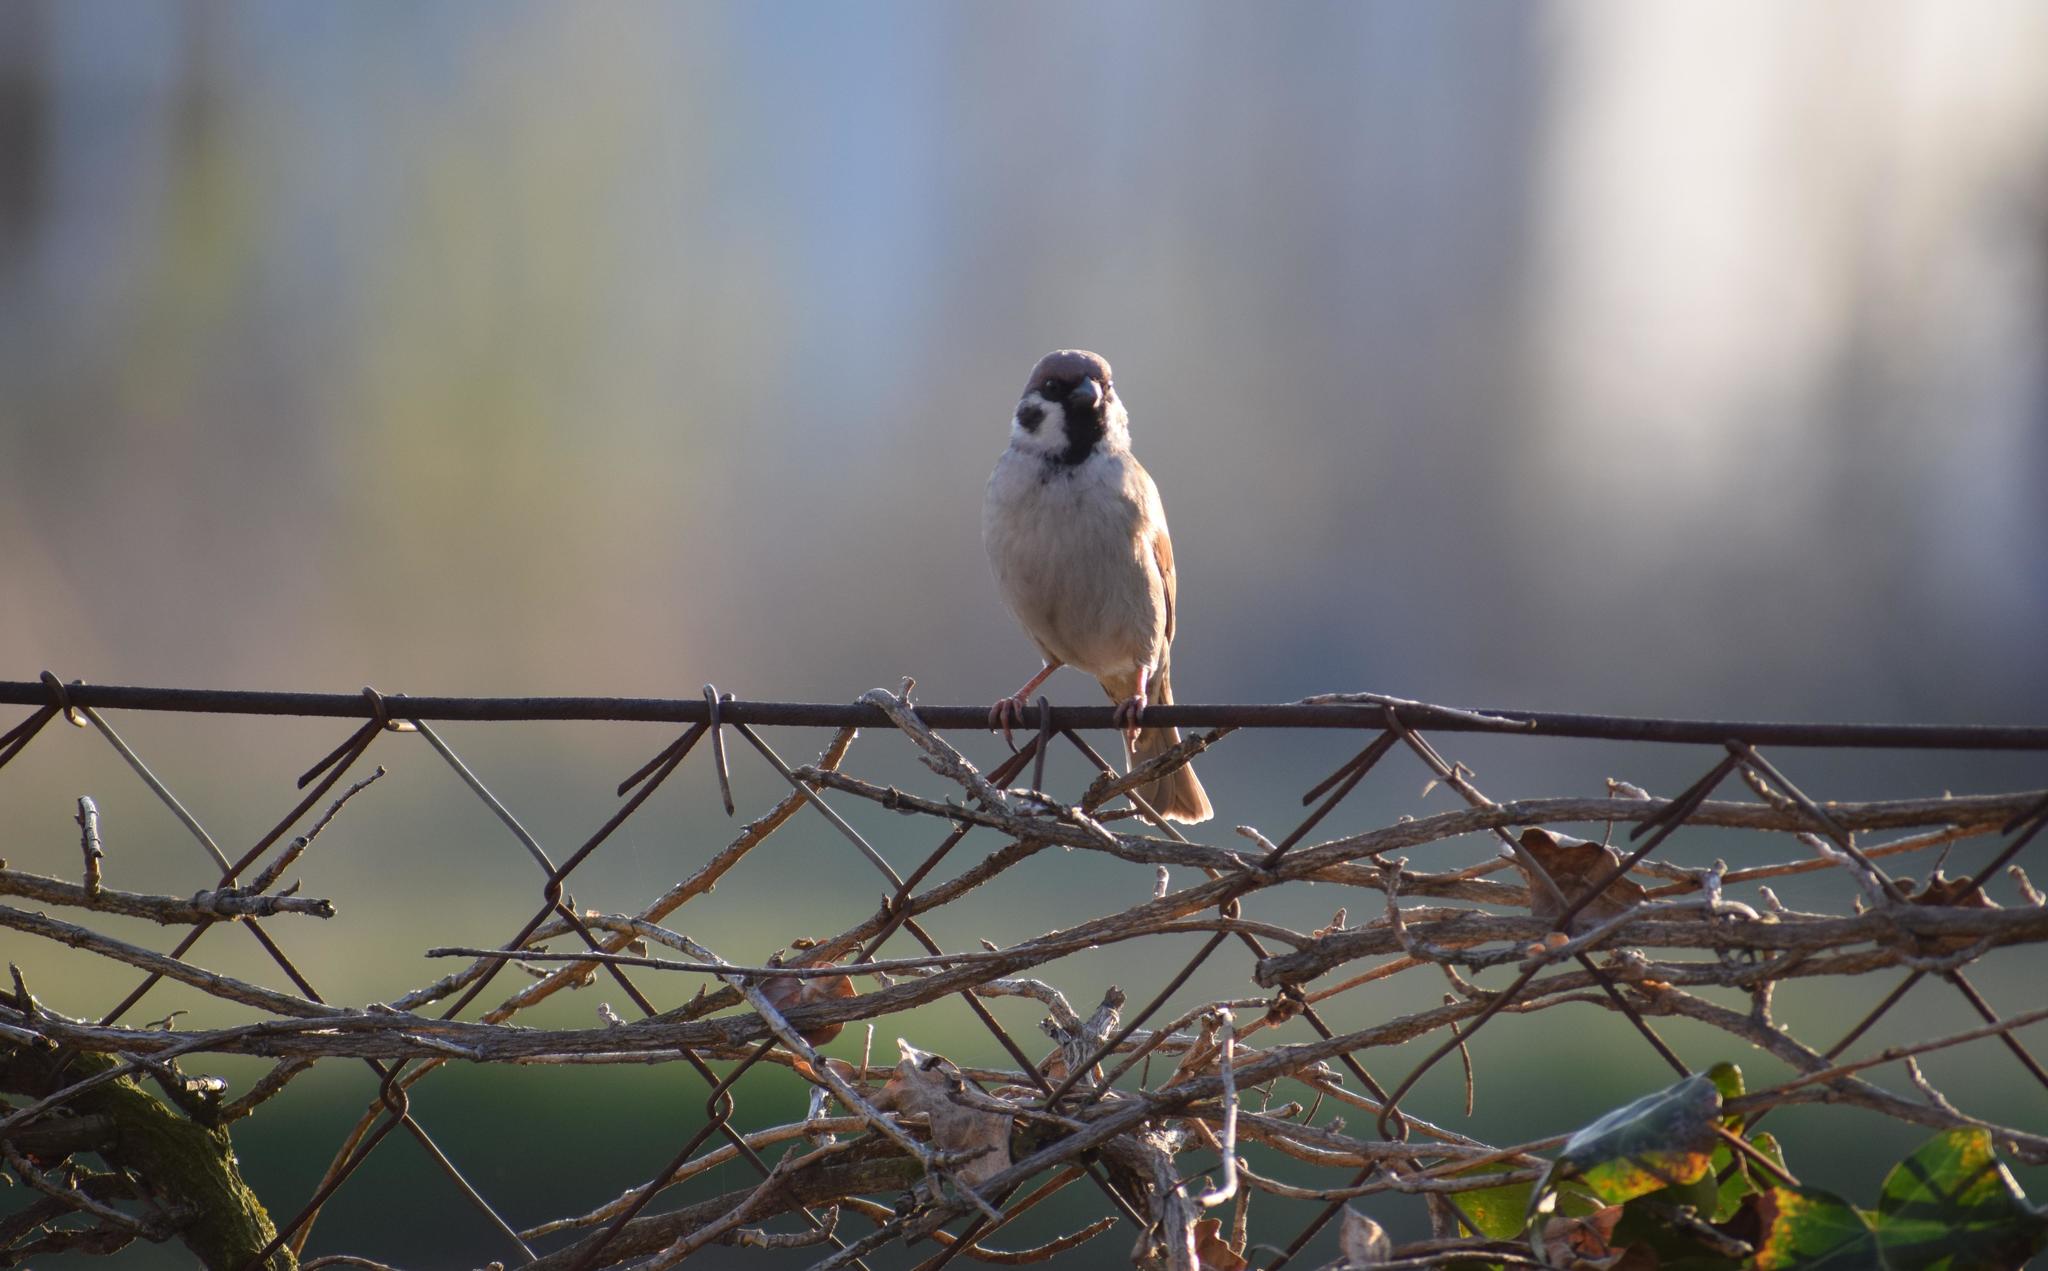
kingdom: Animalia
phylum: Chordata
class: Aves
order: Passeriformes
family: Passeridae
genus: Passer
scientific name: Passer montanus
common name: Eurasian tree sparrow
